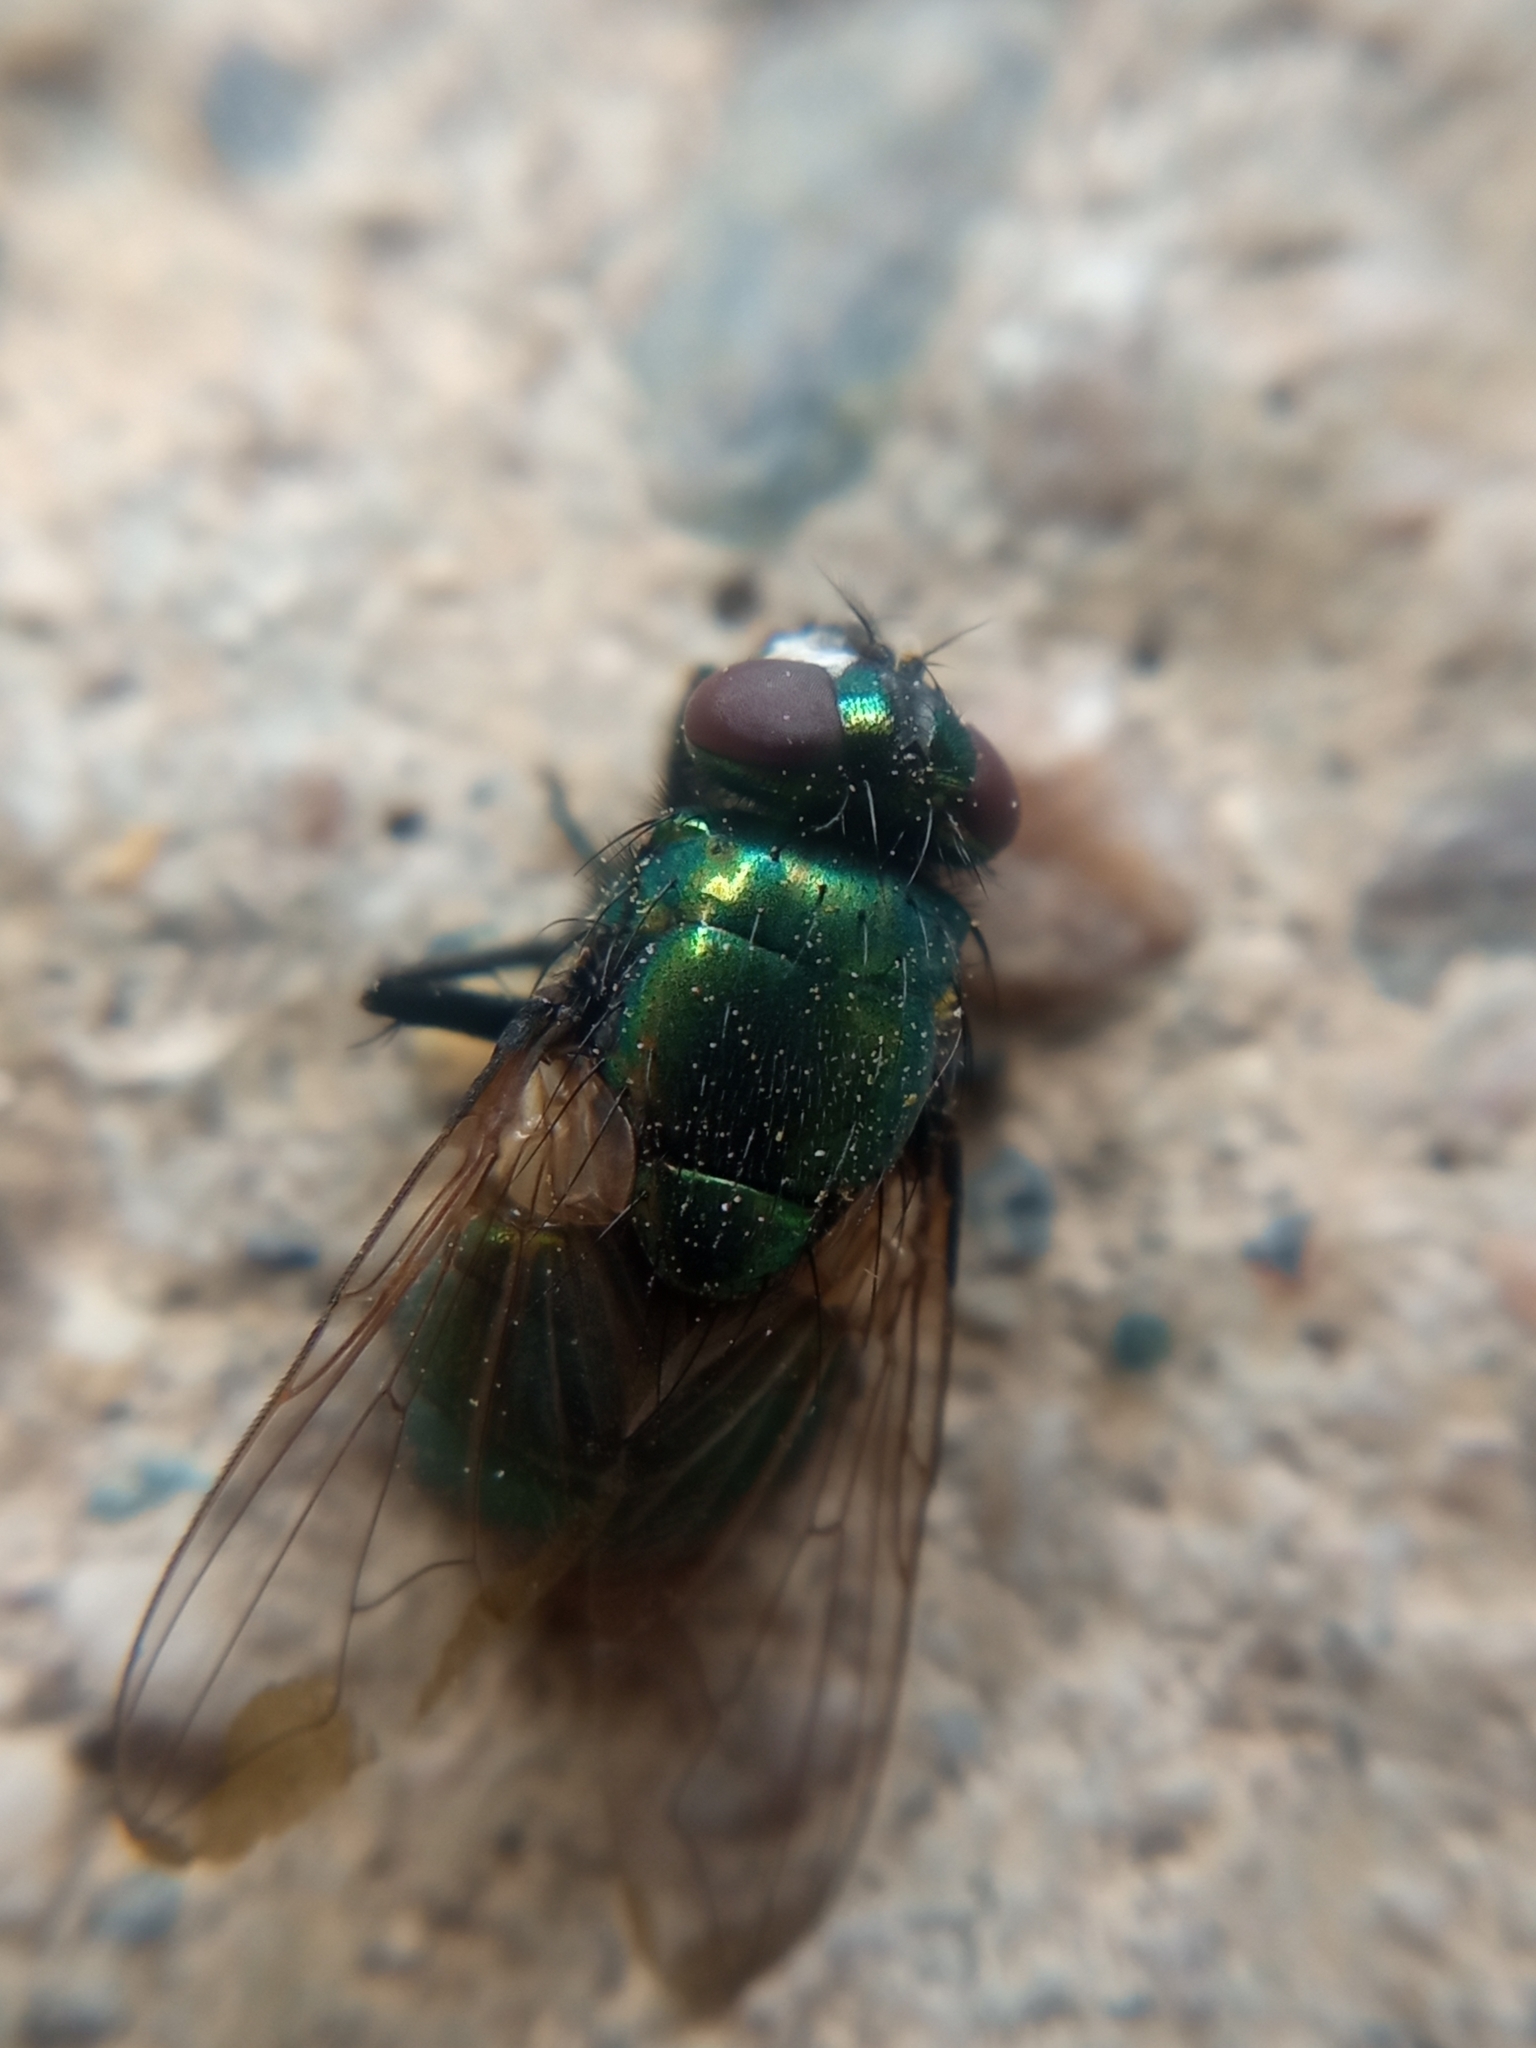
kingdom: Animalia
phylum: Arthropoda
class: Insecta
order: Diptera
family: Muscidae
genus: Neomyia
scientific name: Neomyia cornicina
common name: House fly
